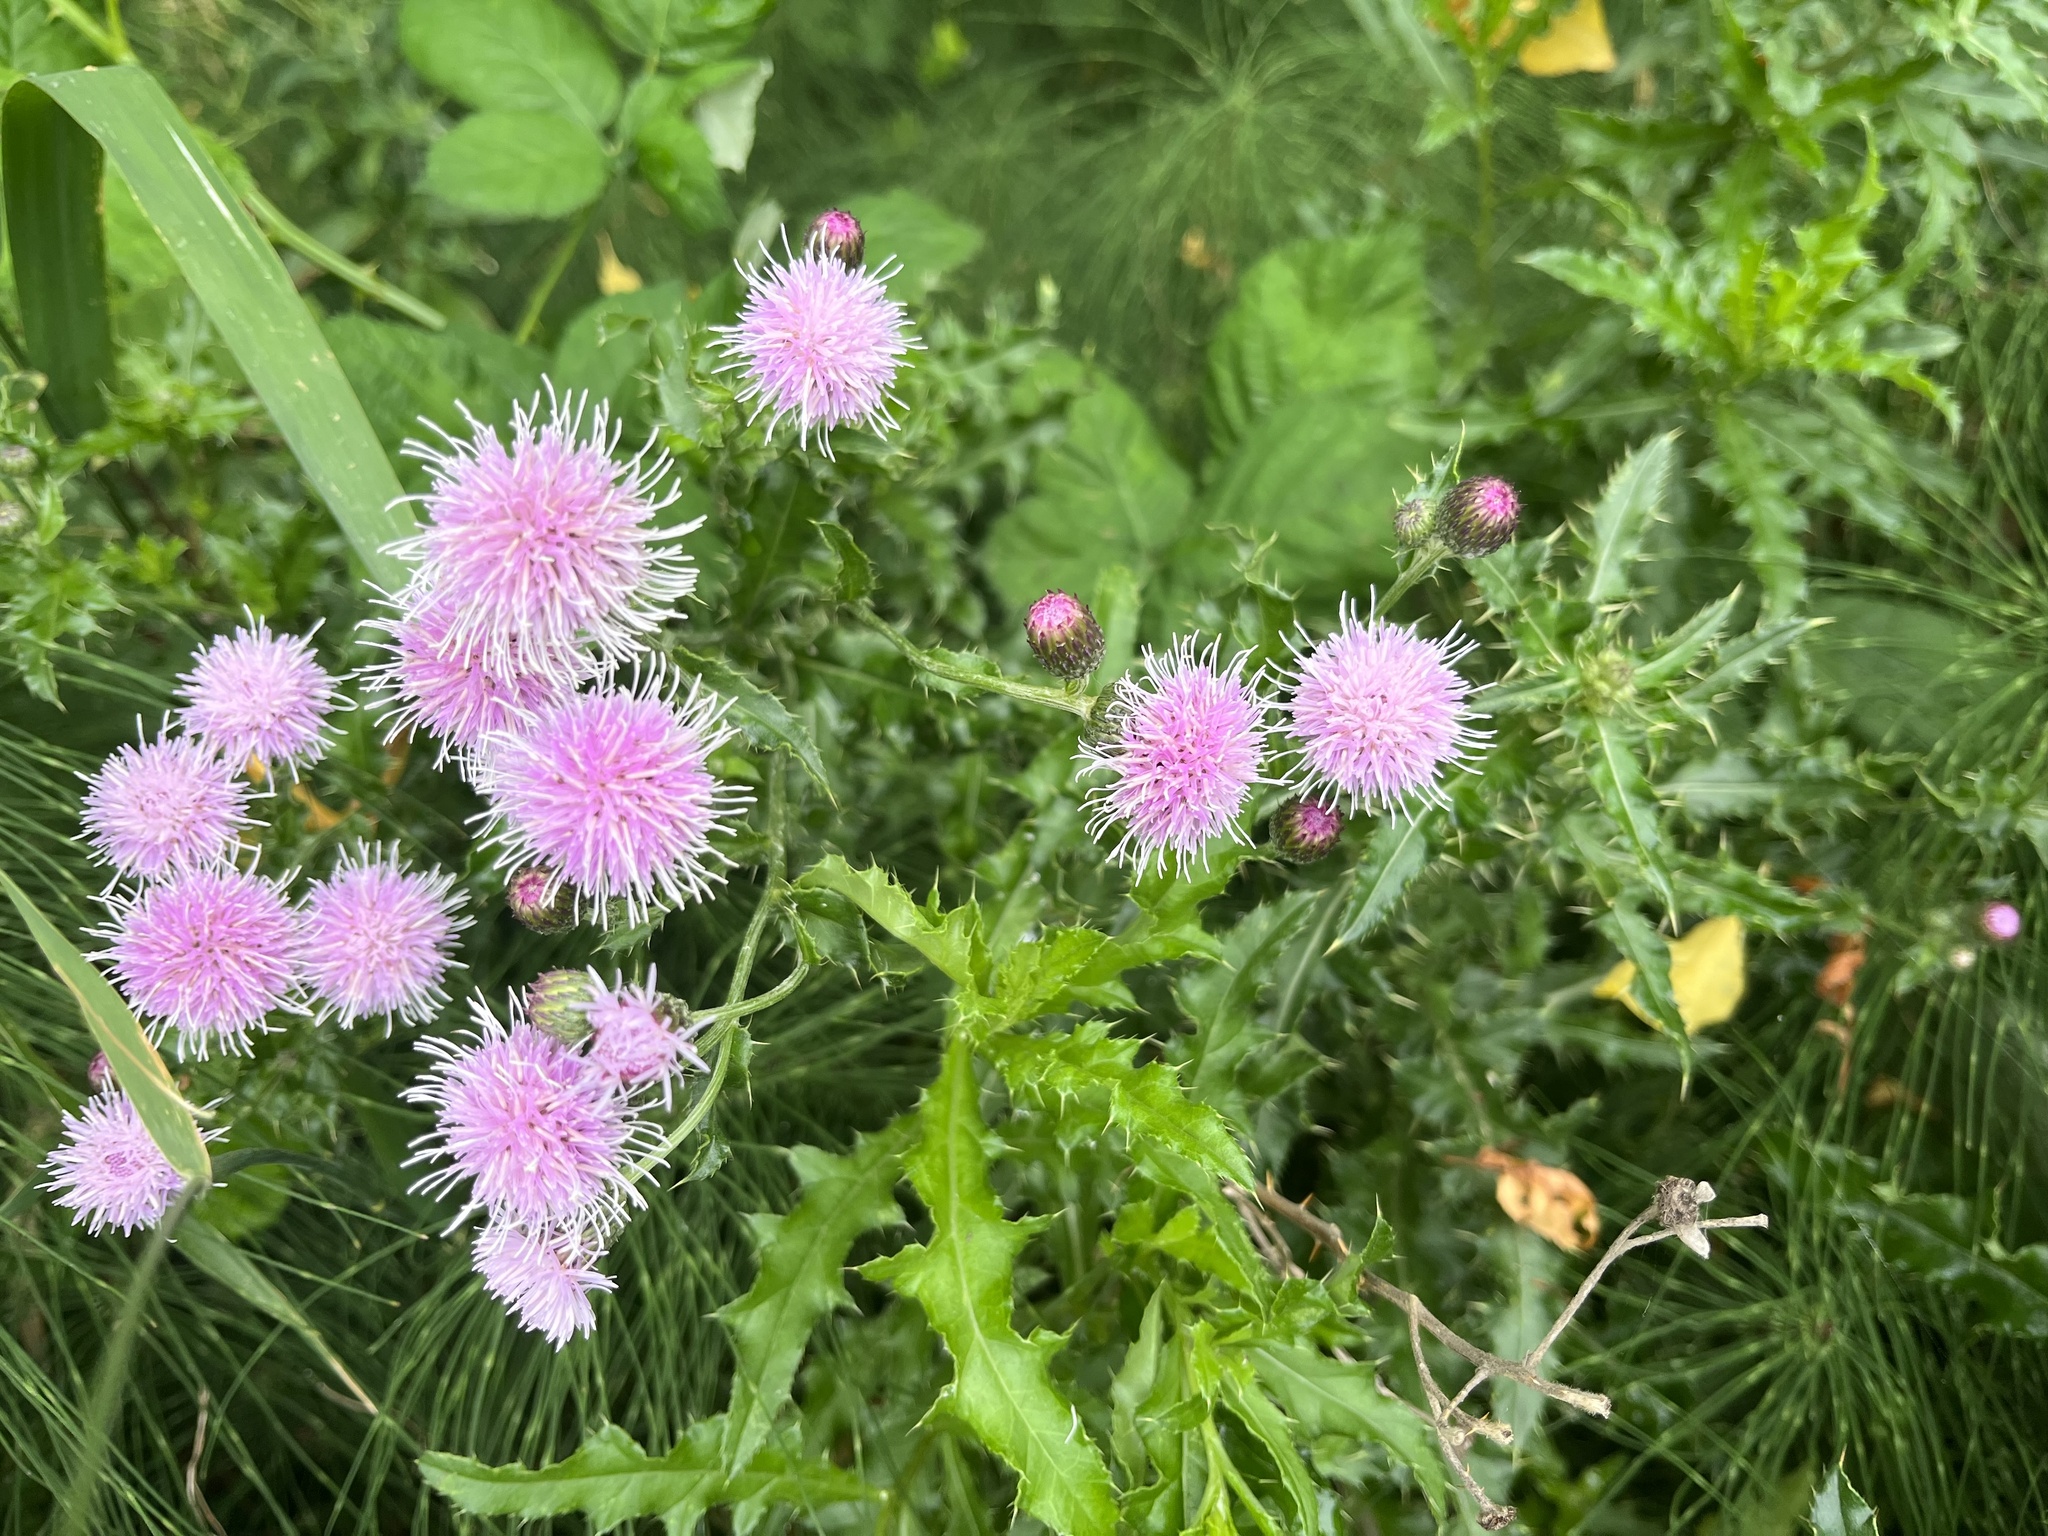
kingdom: Plantae
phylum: Tracheophyta
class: Magnoliopsida
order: Asterales
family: Asteraceae
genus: Cirsium
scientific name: Cirsium arvense
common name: Creeping thistle
